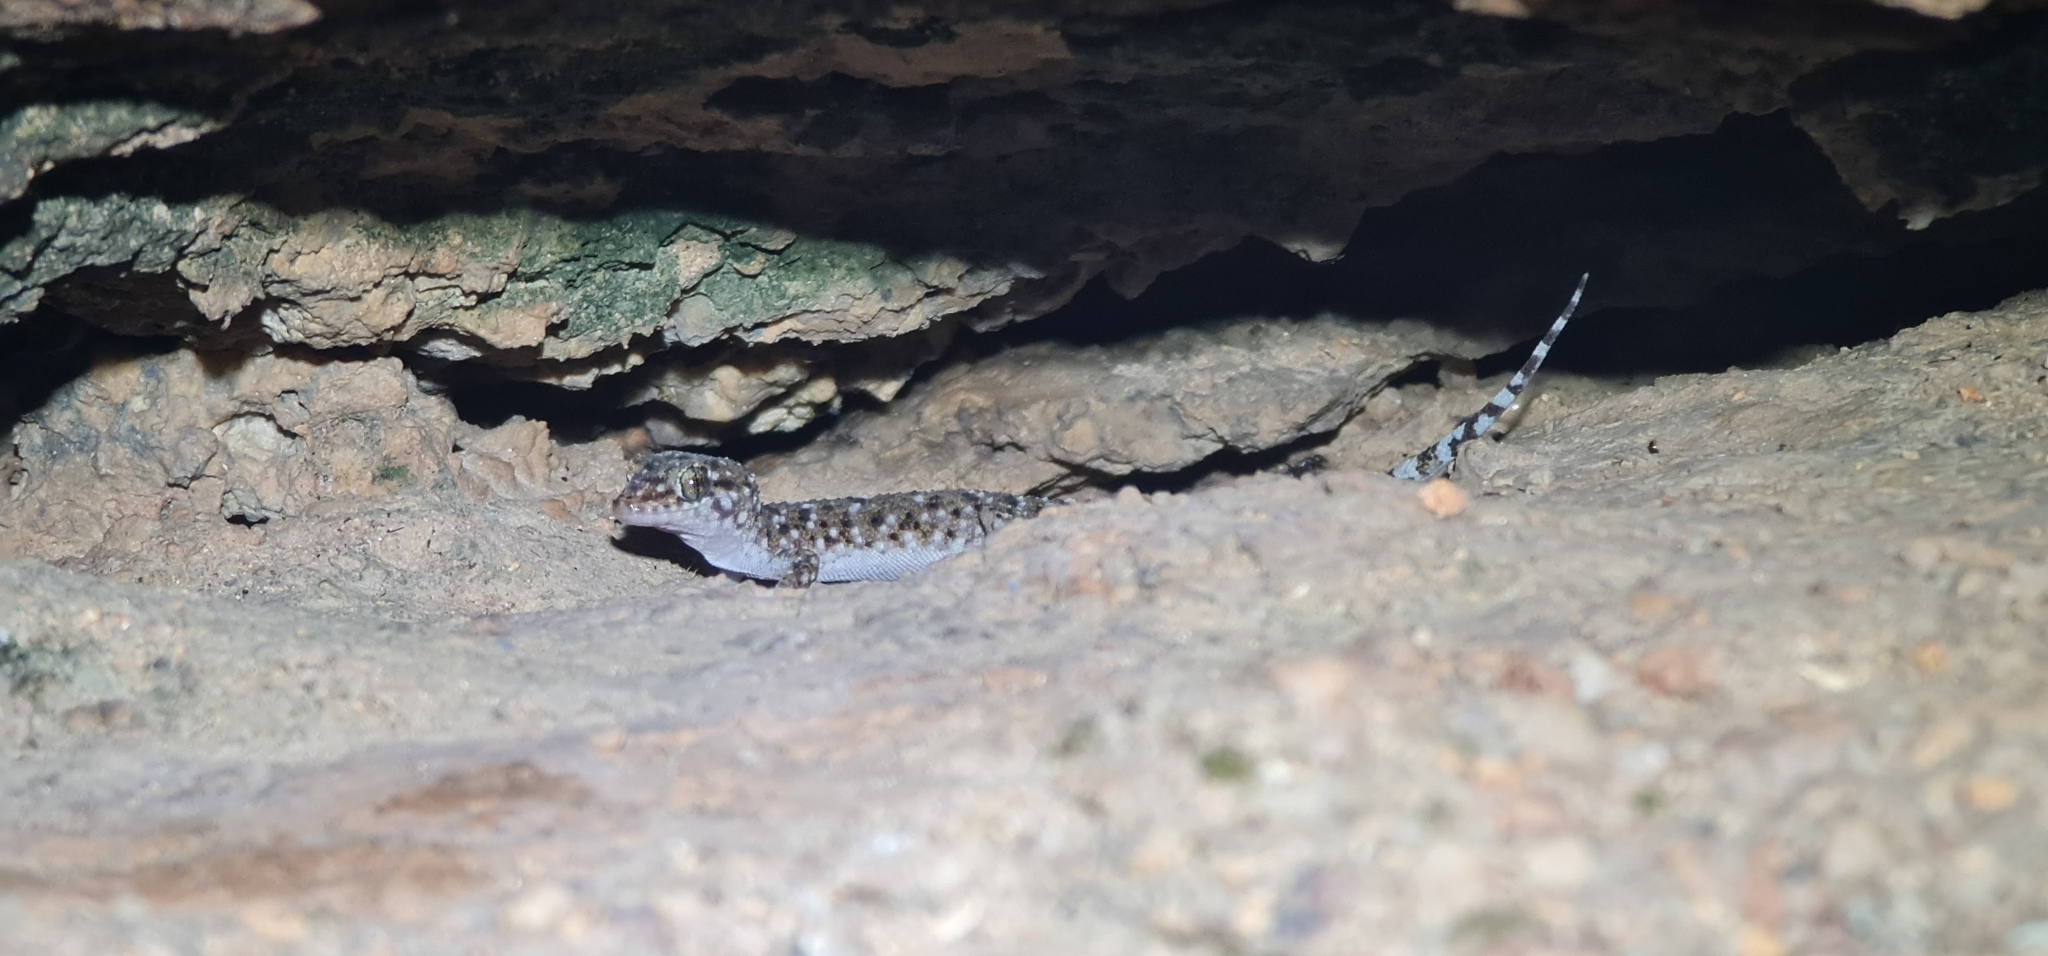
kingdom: Animalia
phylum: Chordata
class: Squamata
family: Gekkonidae
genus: Heteronotia
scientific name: Heteronotia binoei
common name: Bynoe's gecko
